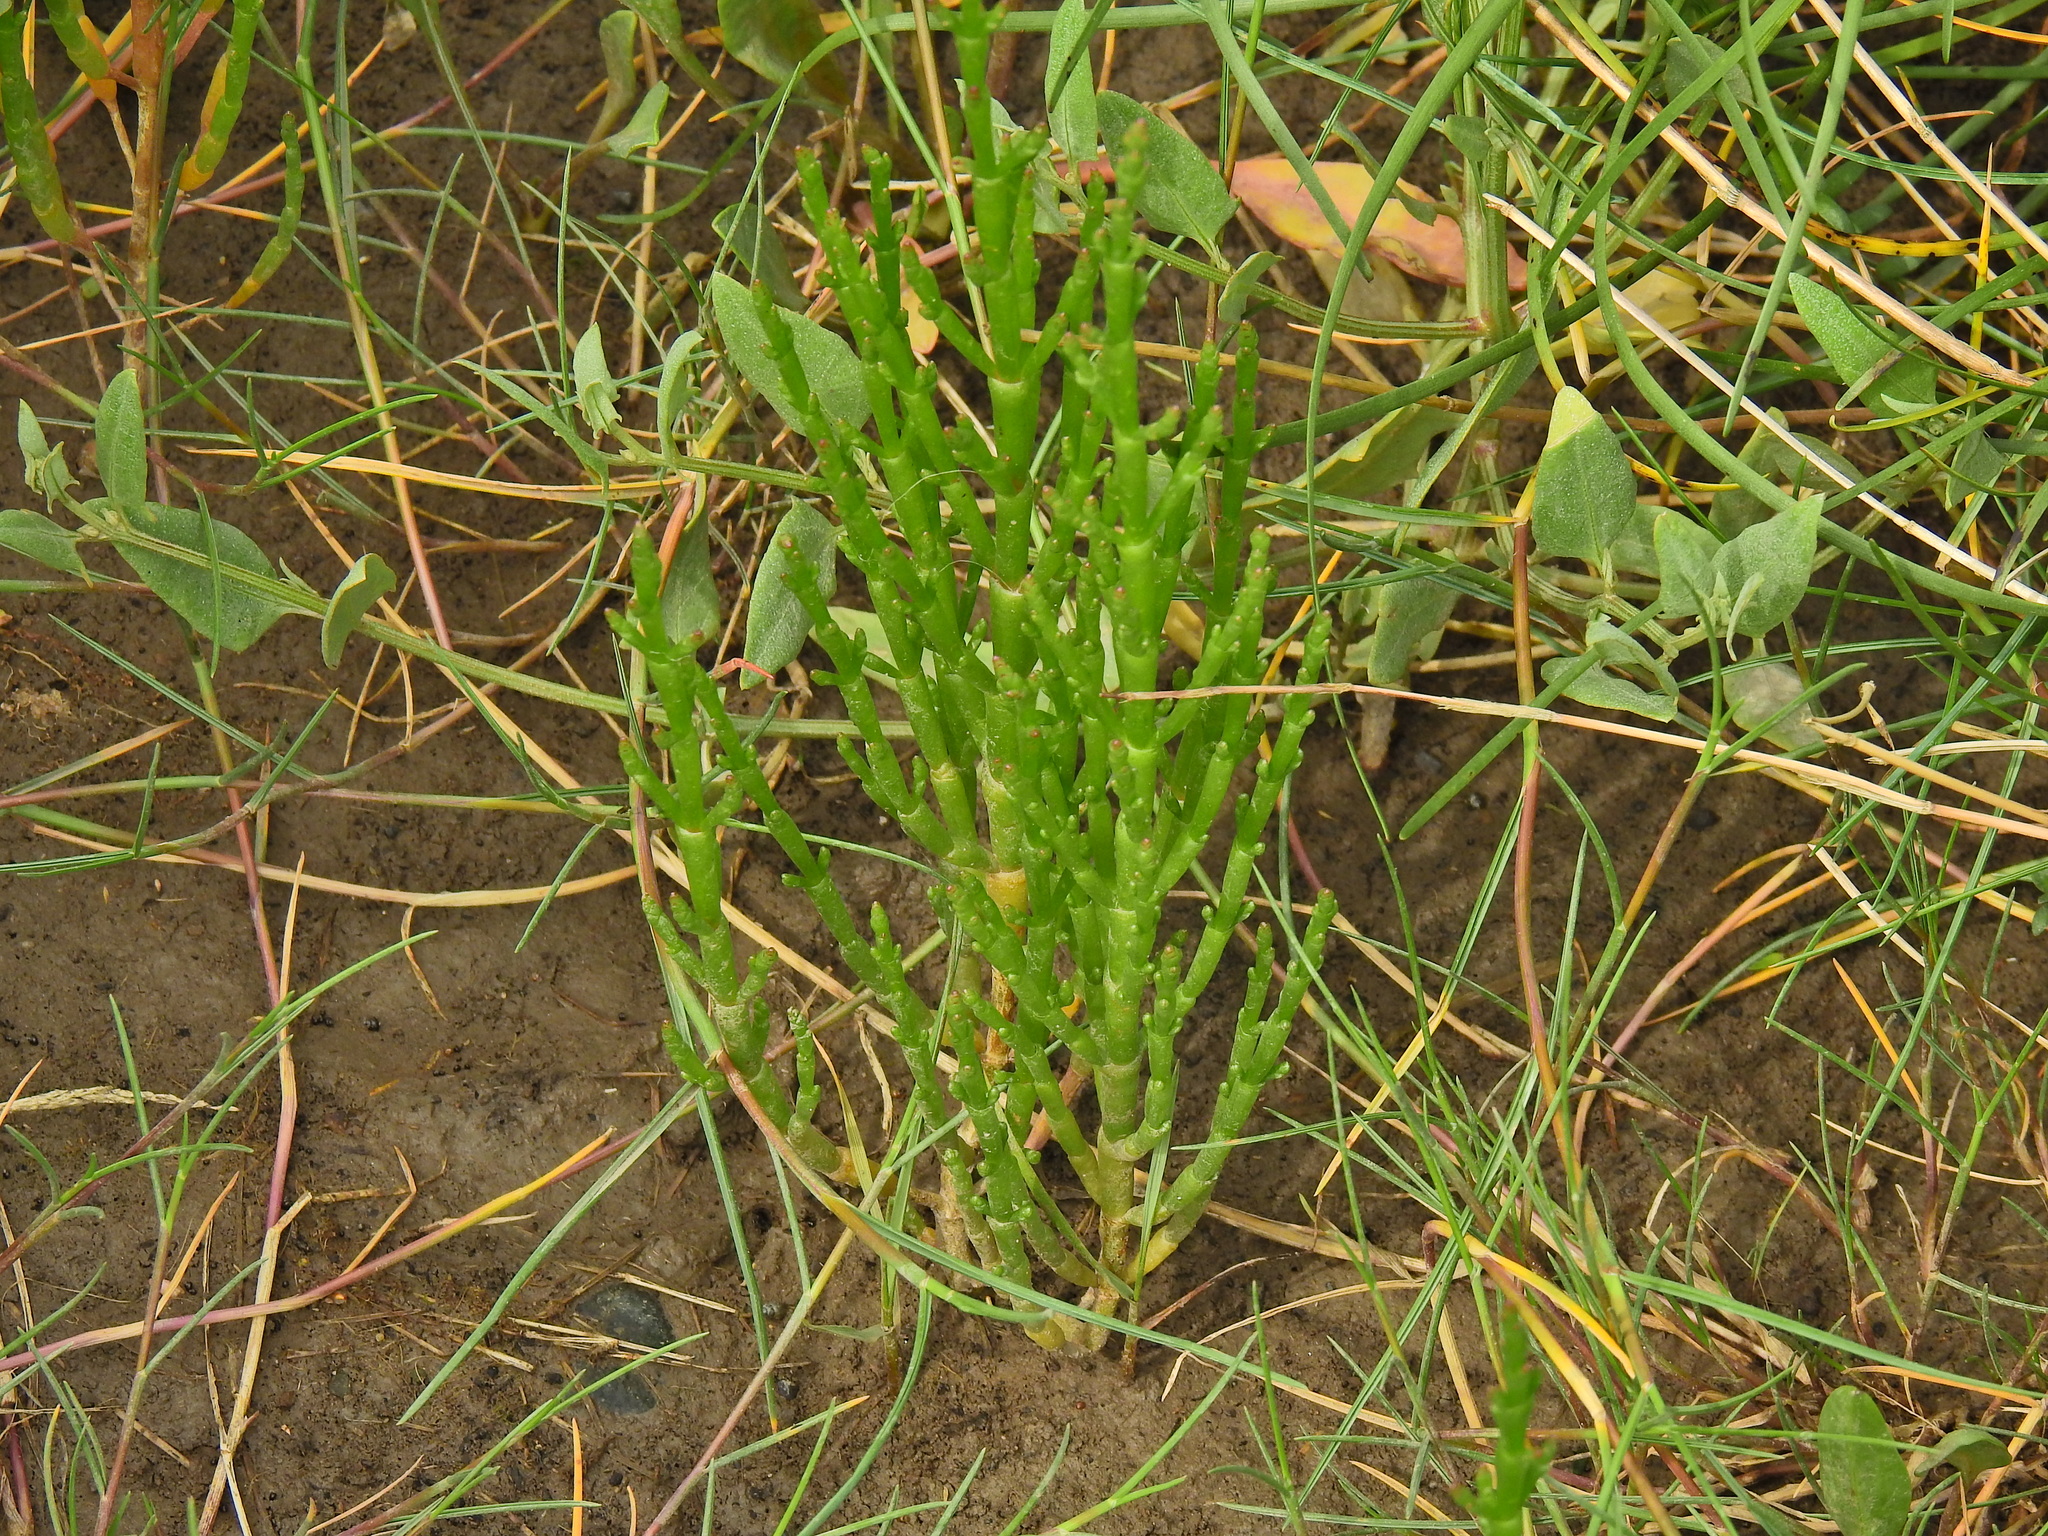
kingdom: Plantae
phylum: Tracheophyta
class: Magnoliopsida
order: Caryophyllales
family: Amaranthaceae
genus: Salicornia
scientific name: Salicornia europaea
